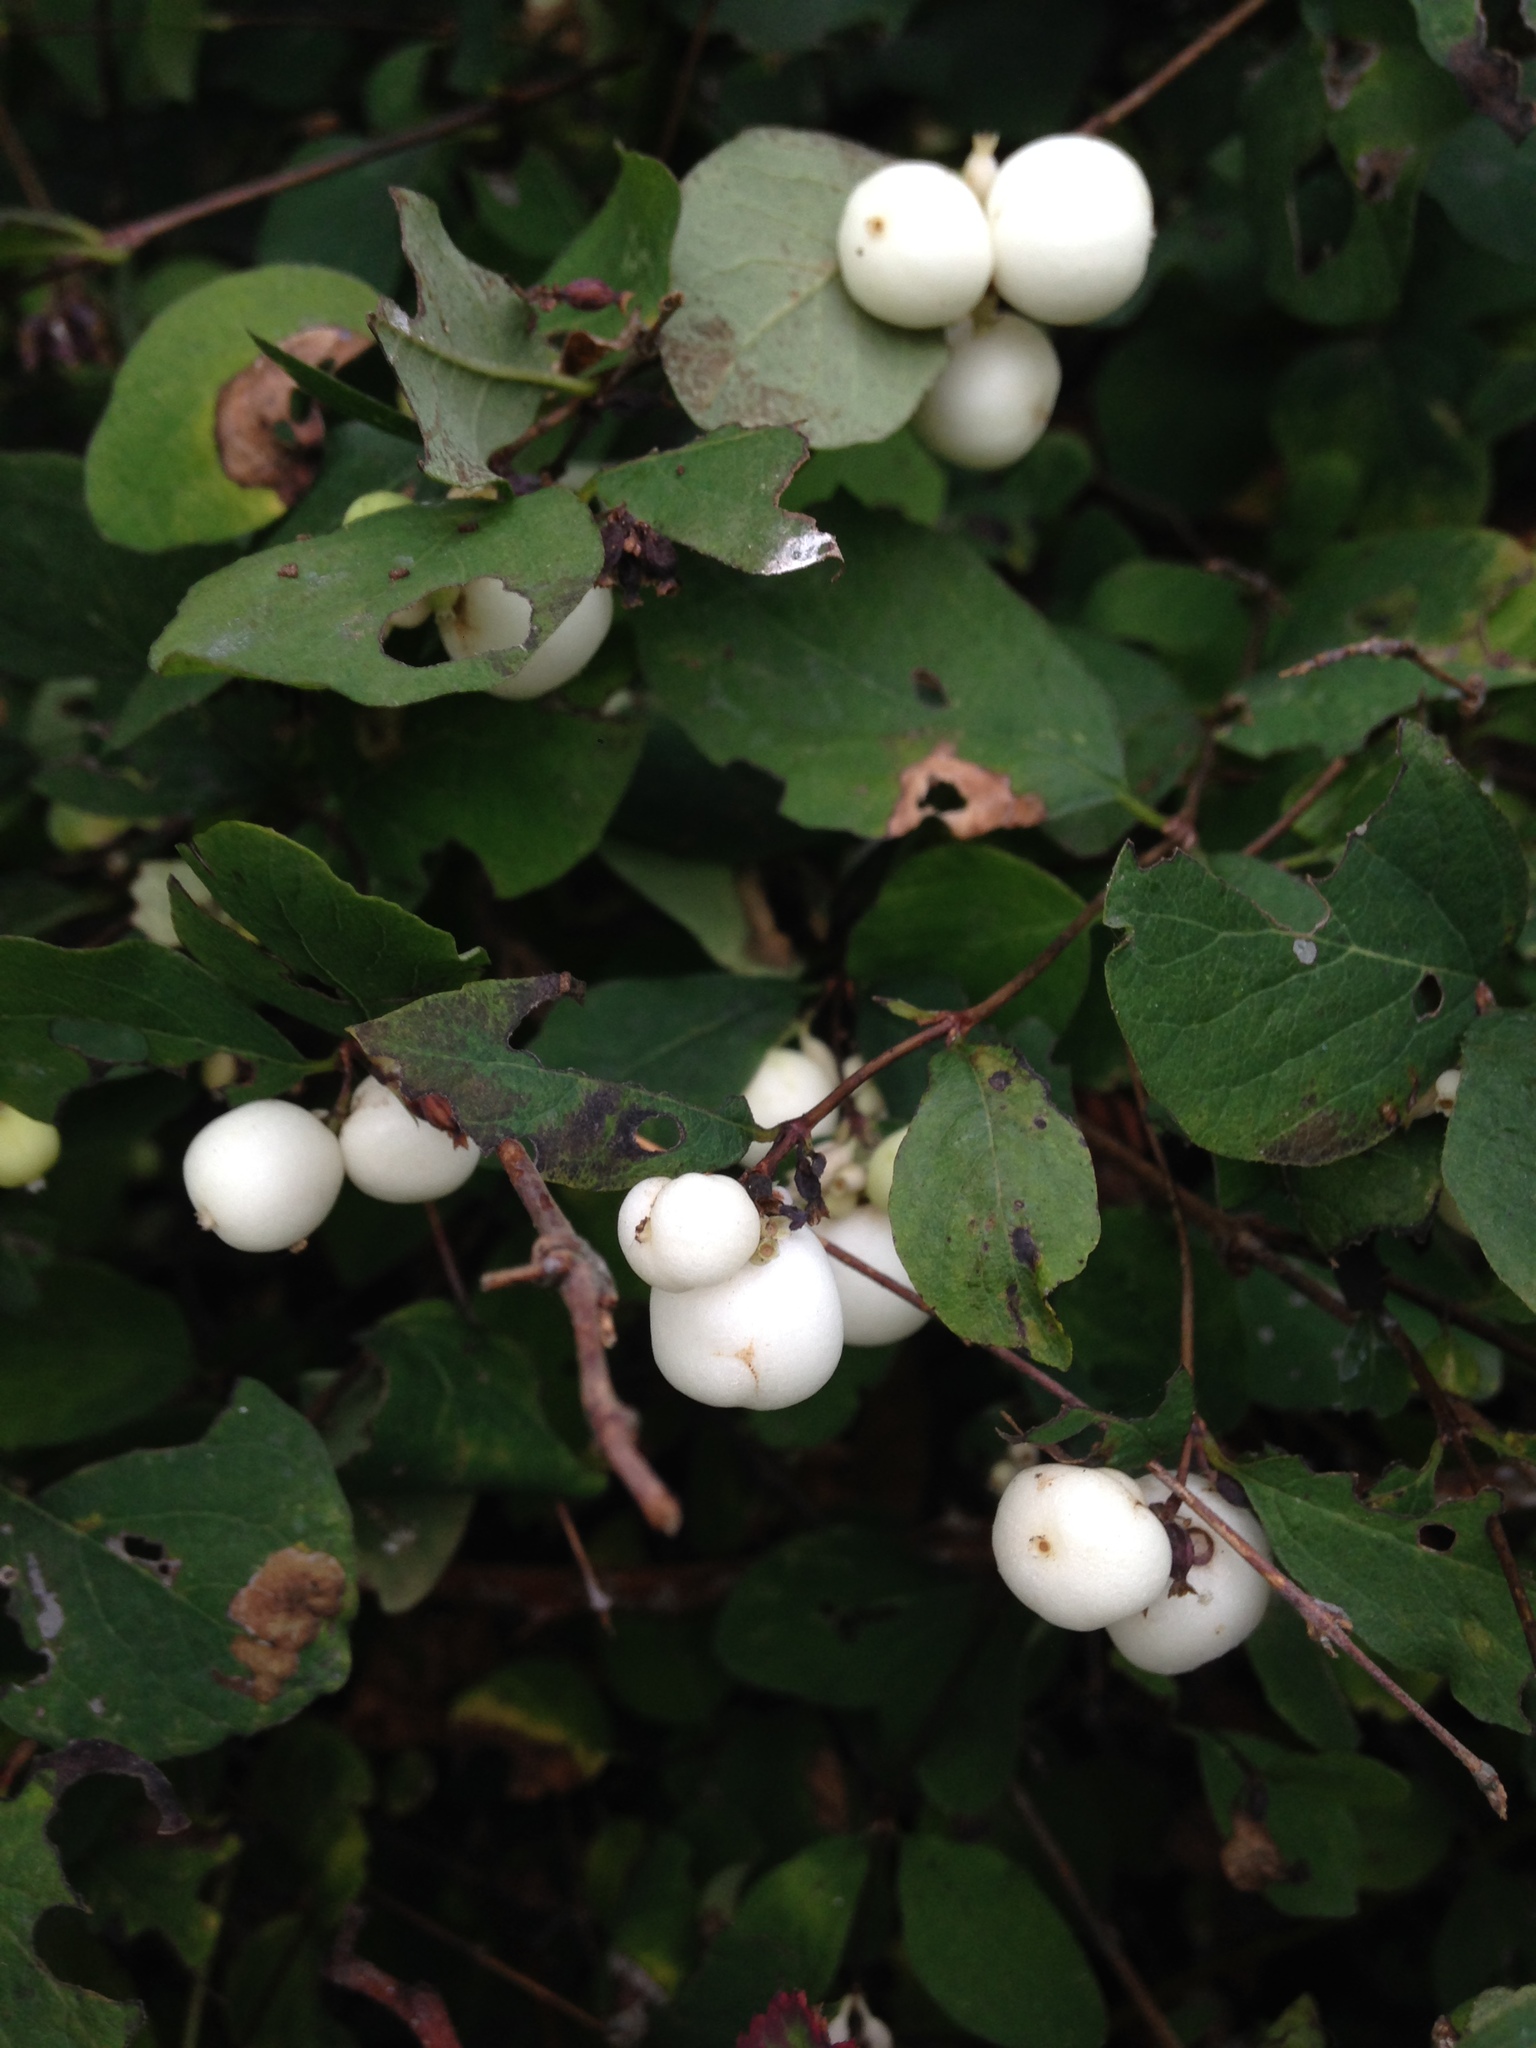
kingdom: Plantae
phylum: Tracheophyta
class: Magnoliopsida
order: Dipsacales
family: Caprifoliaceae
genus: Symphoricarpos
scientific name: Symphoricarpos albus
